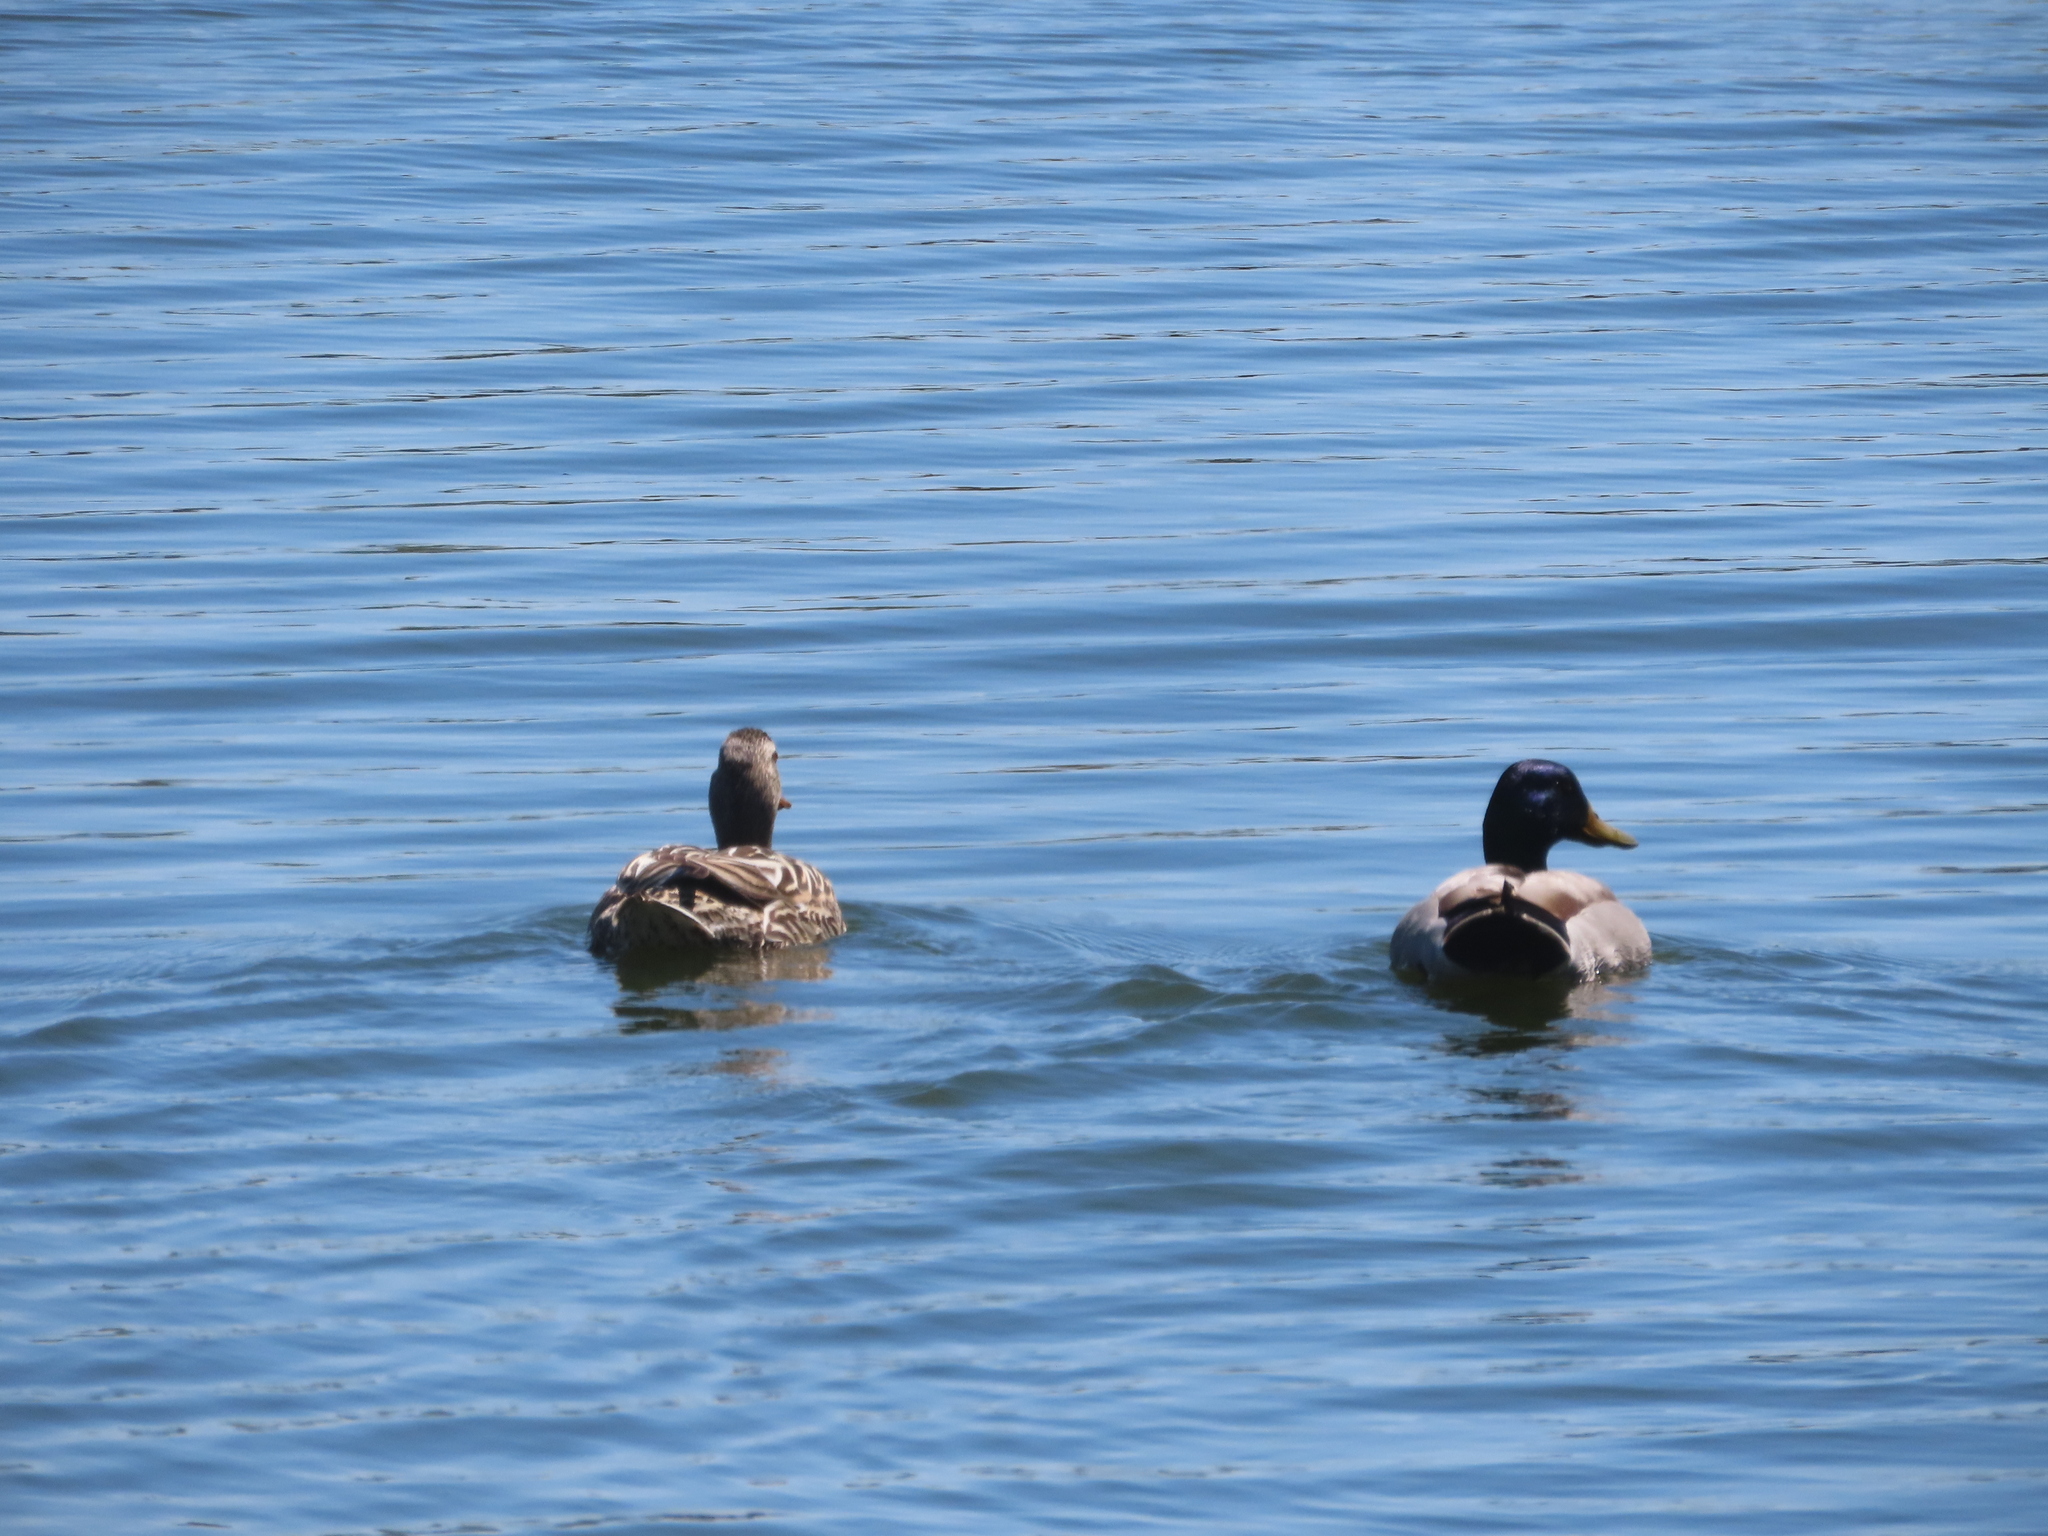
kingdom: Animalia
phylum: Chordata
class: Aves
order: Anseriformes
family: Anatidae
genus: Anas
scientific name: Anas platyrhynchos
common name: Mallard
